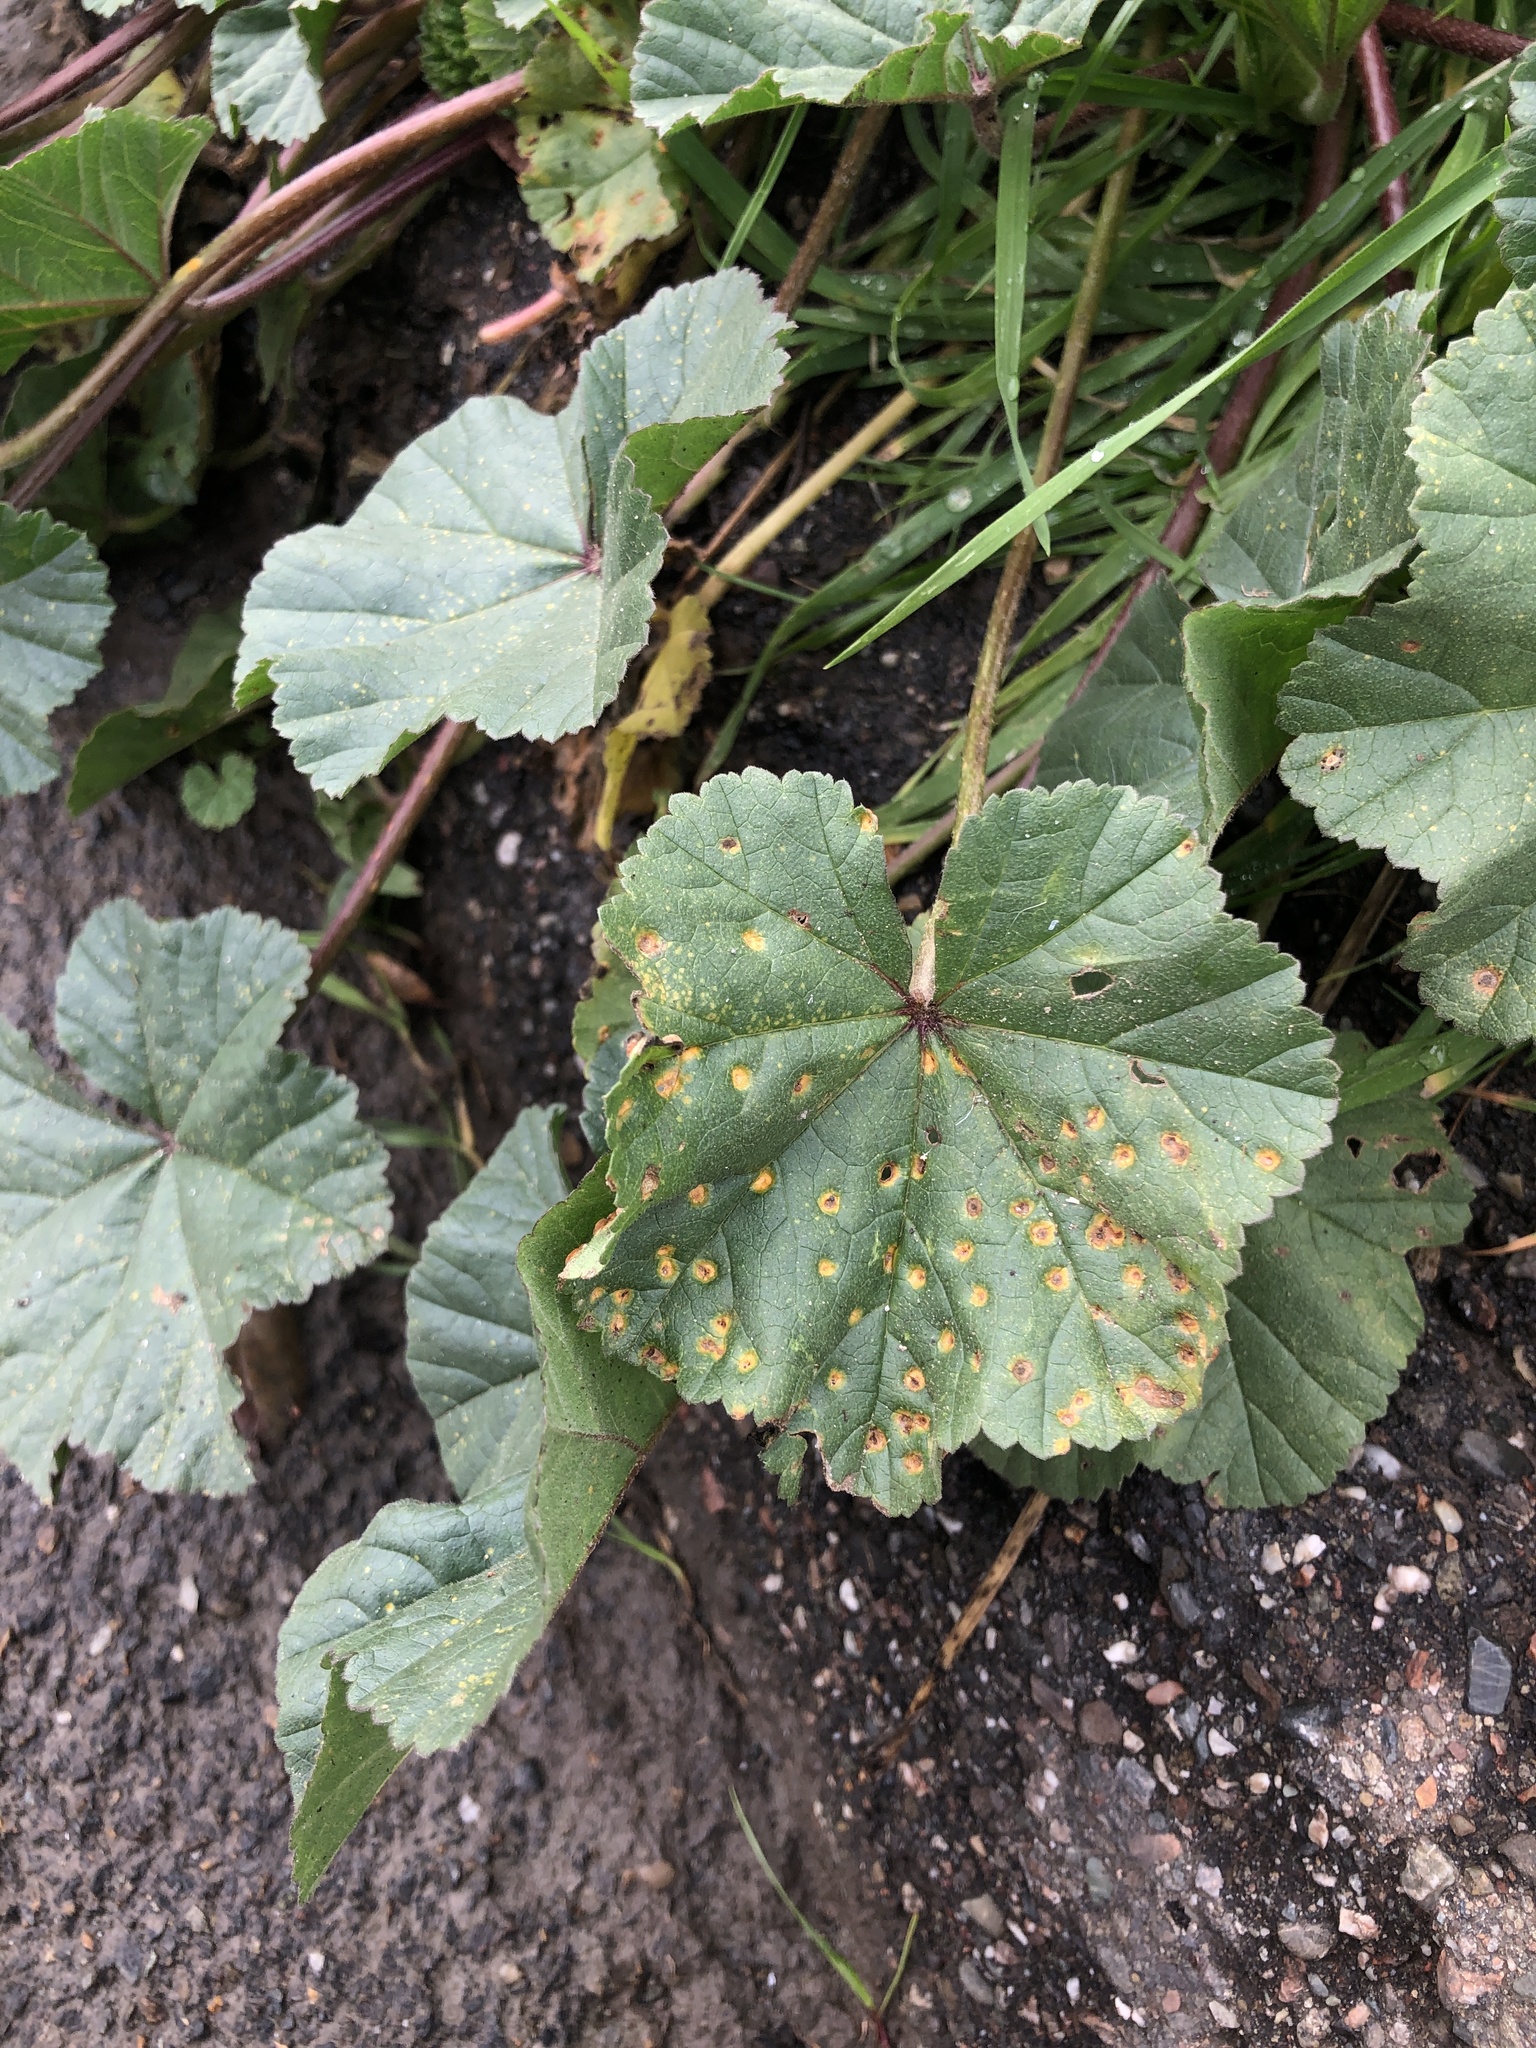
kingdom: Fungi
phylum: Basidiomycota
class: Pucciniomycetes
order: Pucciniales
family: Pucciniaceae
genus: Puccinia
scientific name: Puccinia malvacearum
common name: Hollyhock rust
